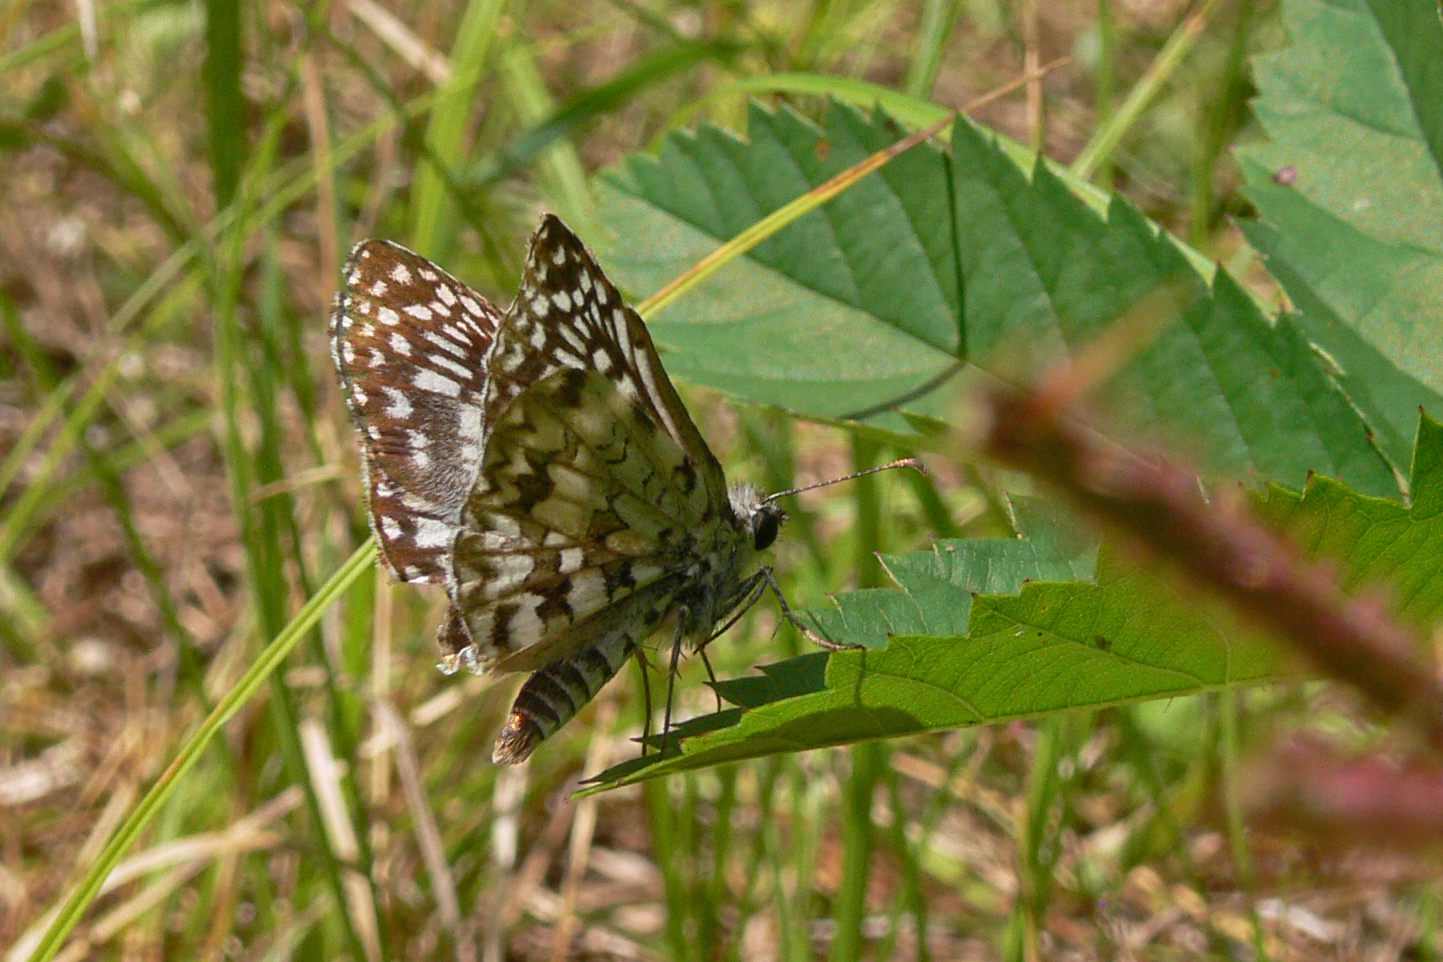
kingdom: Animalia
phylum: Arthropoda
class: Insecta
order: Lepidoptera
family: Hesperiidae
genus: Pyrgus
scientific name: Pyrgus oileus
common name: Tropical checkered-skipper
